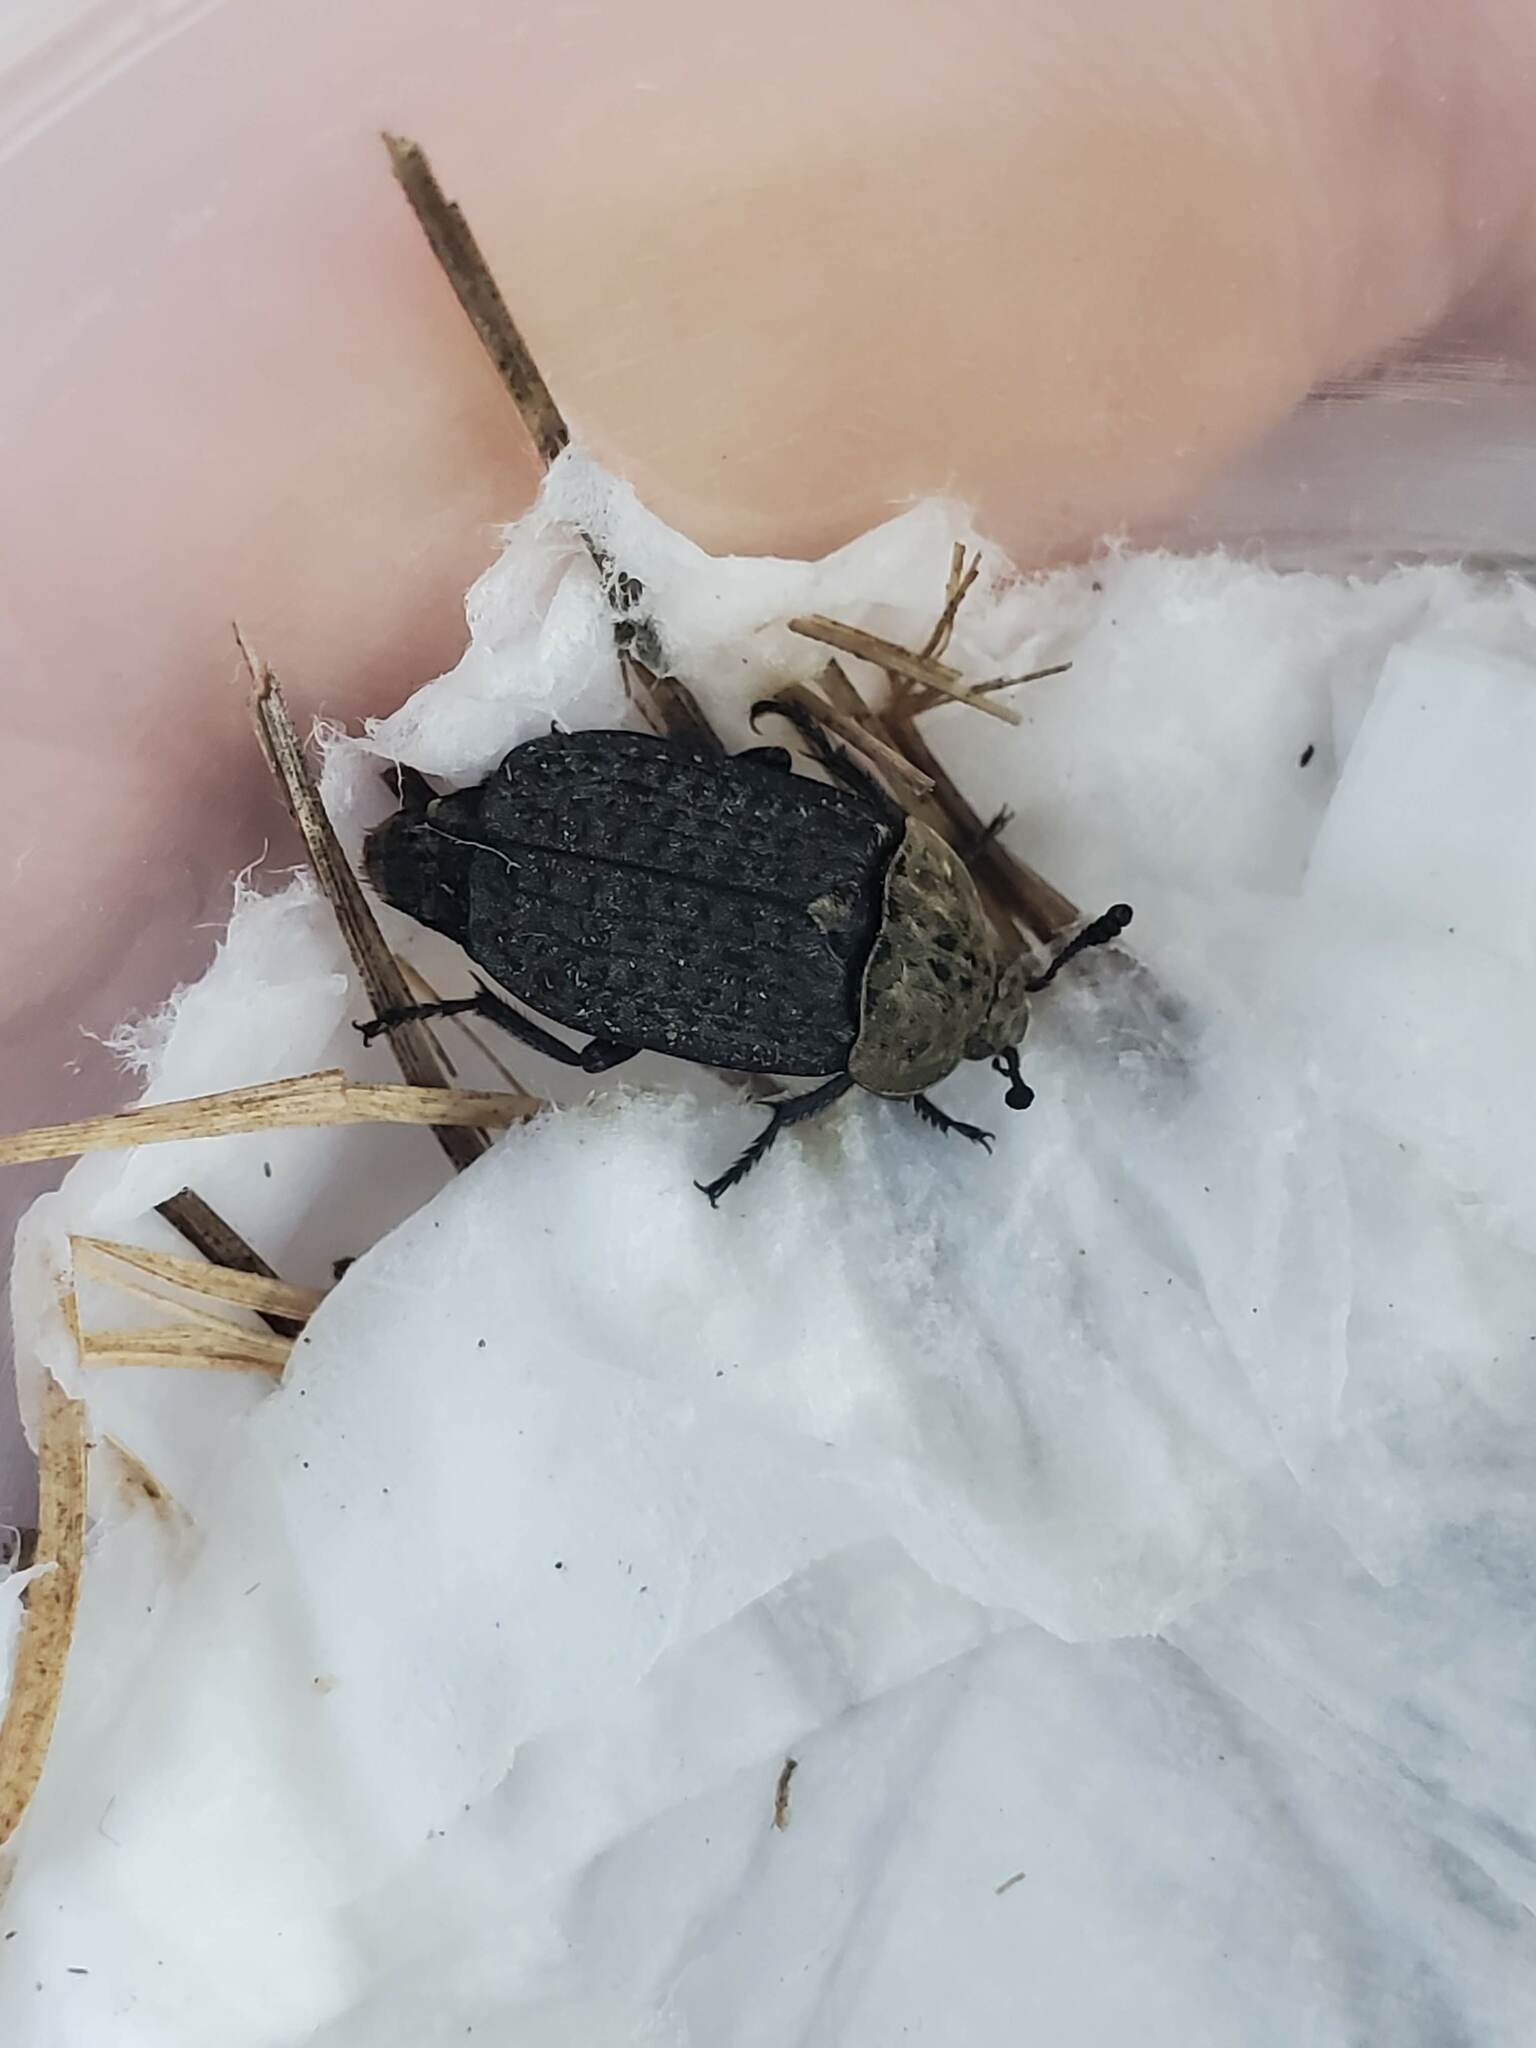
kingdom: Animalia
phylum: Arthropoda
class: Insecta
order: Coleoptera
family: Staphylinidae
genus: Thanatophilus
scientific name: Thanatophilus lapponicus
